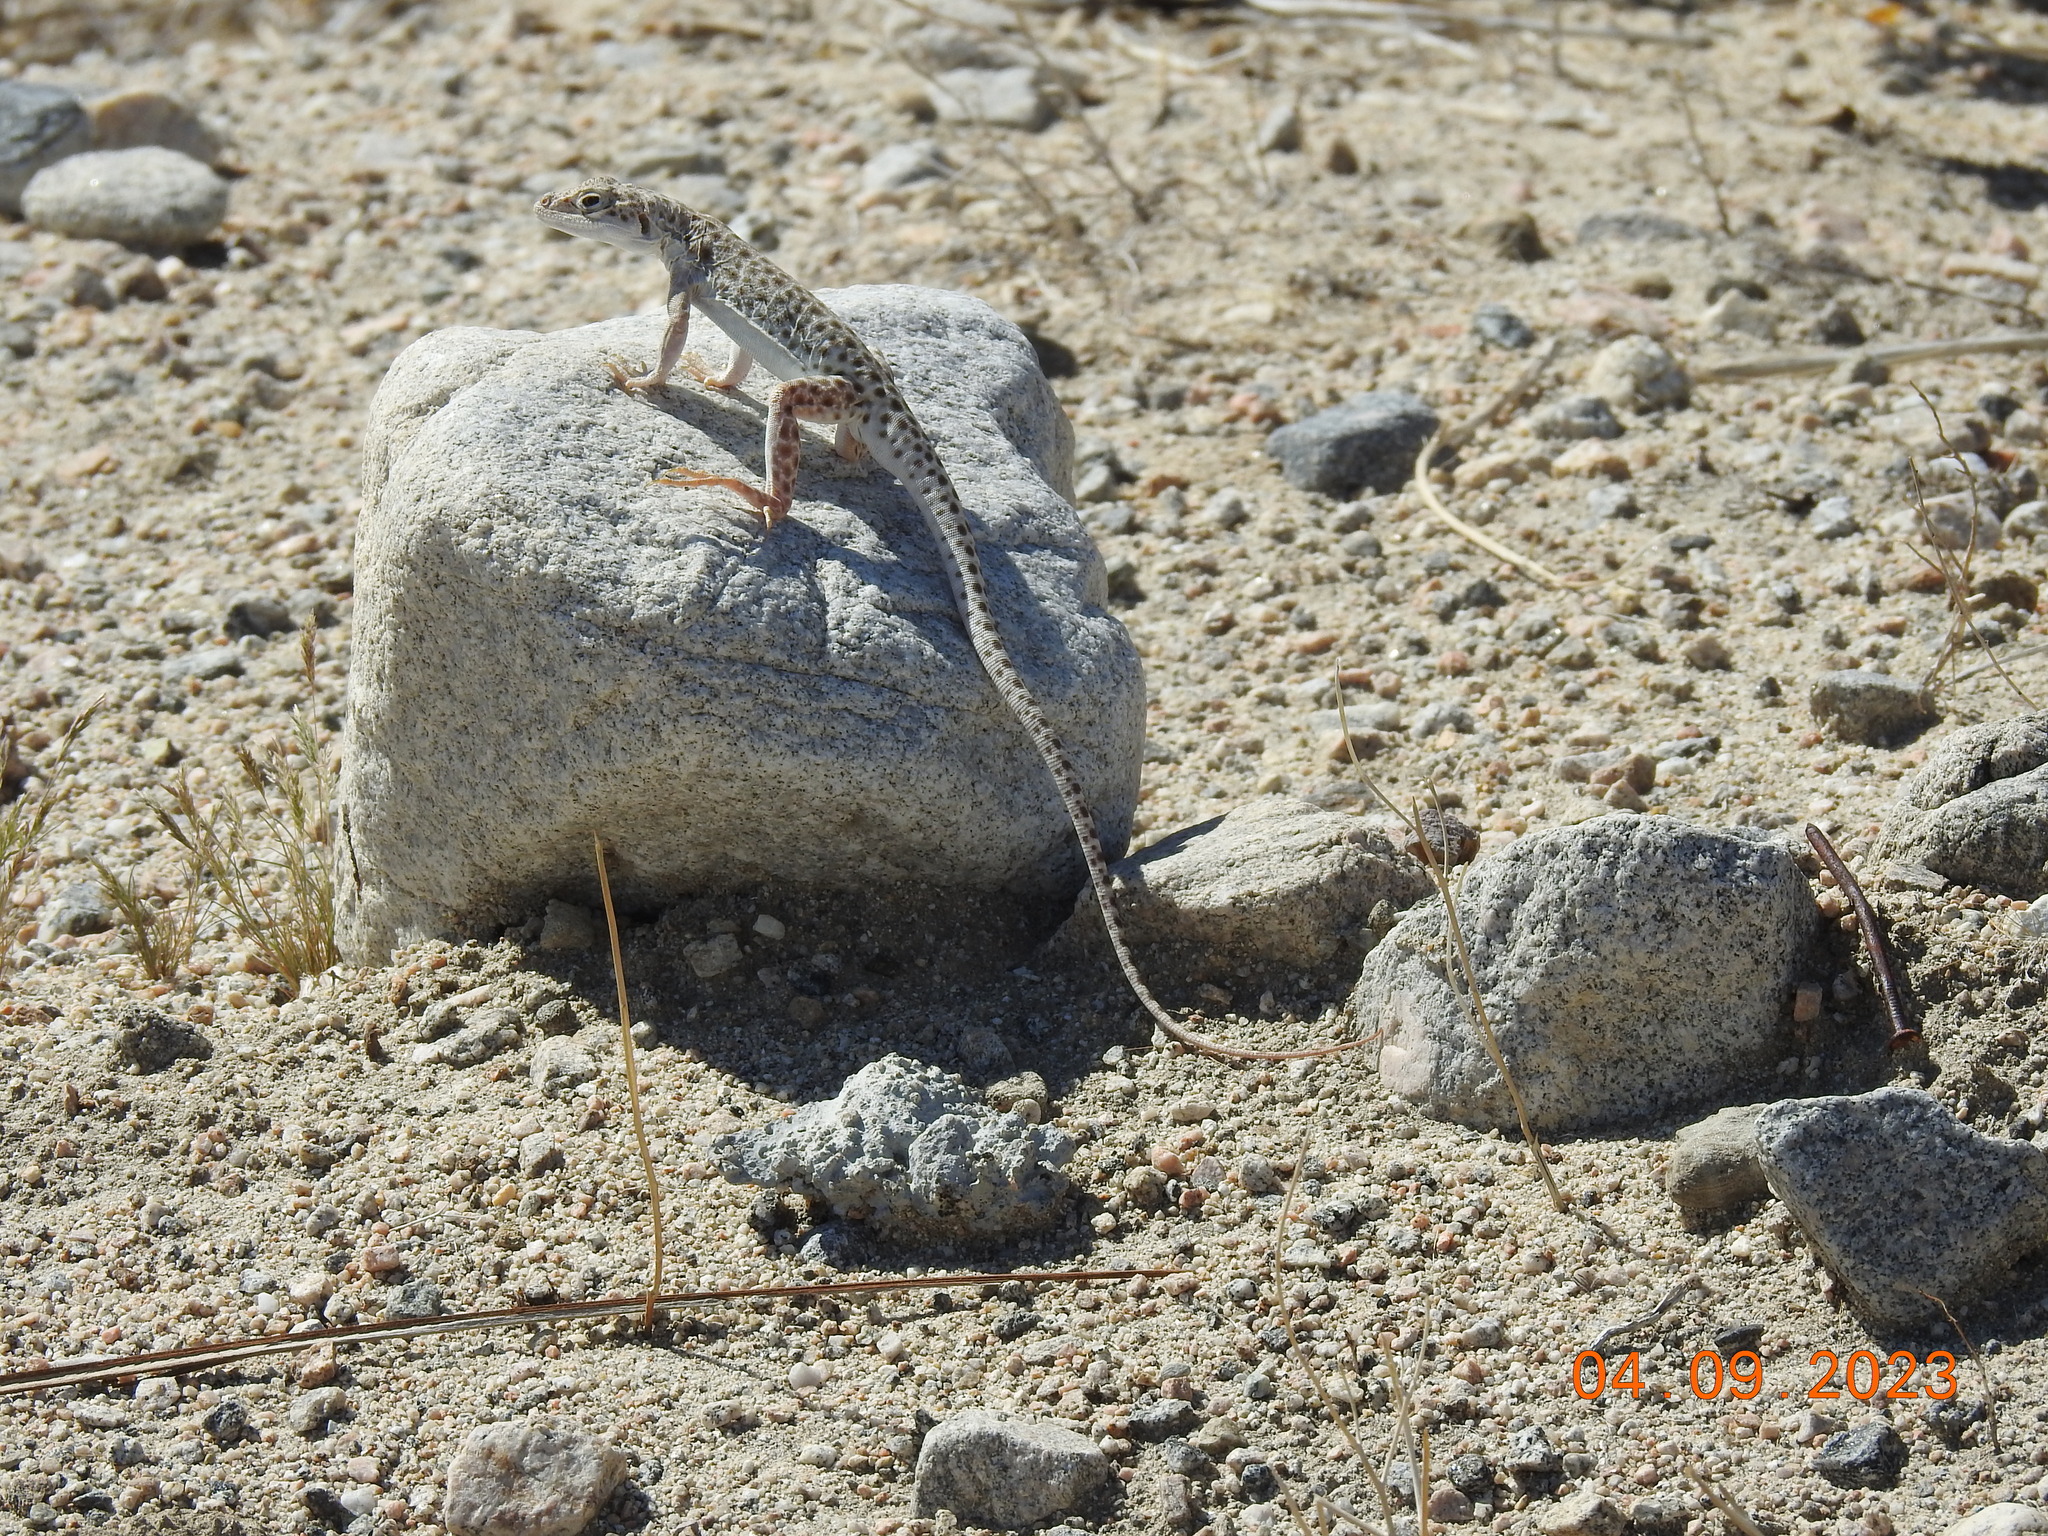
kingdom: Animalia
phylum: Chordata
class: Squamata
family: Crotaphytidae
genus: Gambelia
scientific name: Gambelia wislizenii
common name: Longnose leopard lizard
